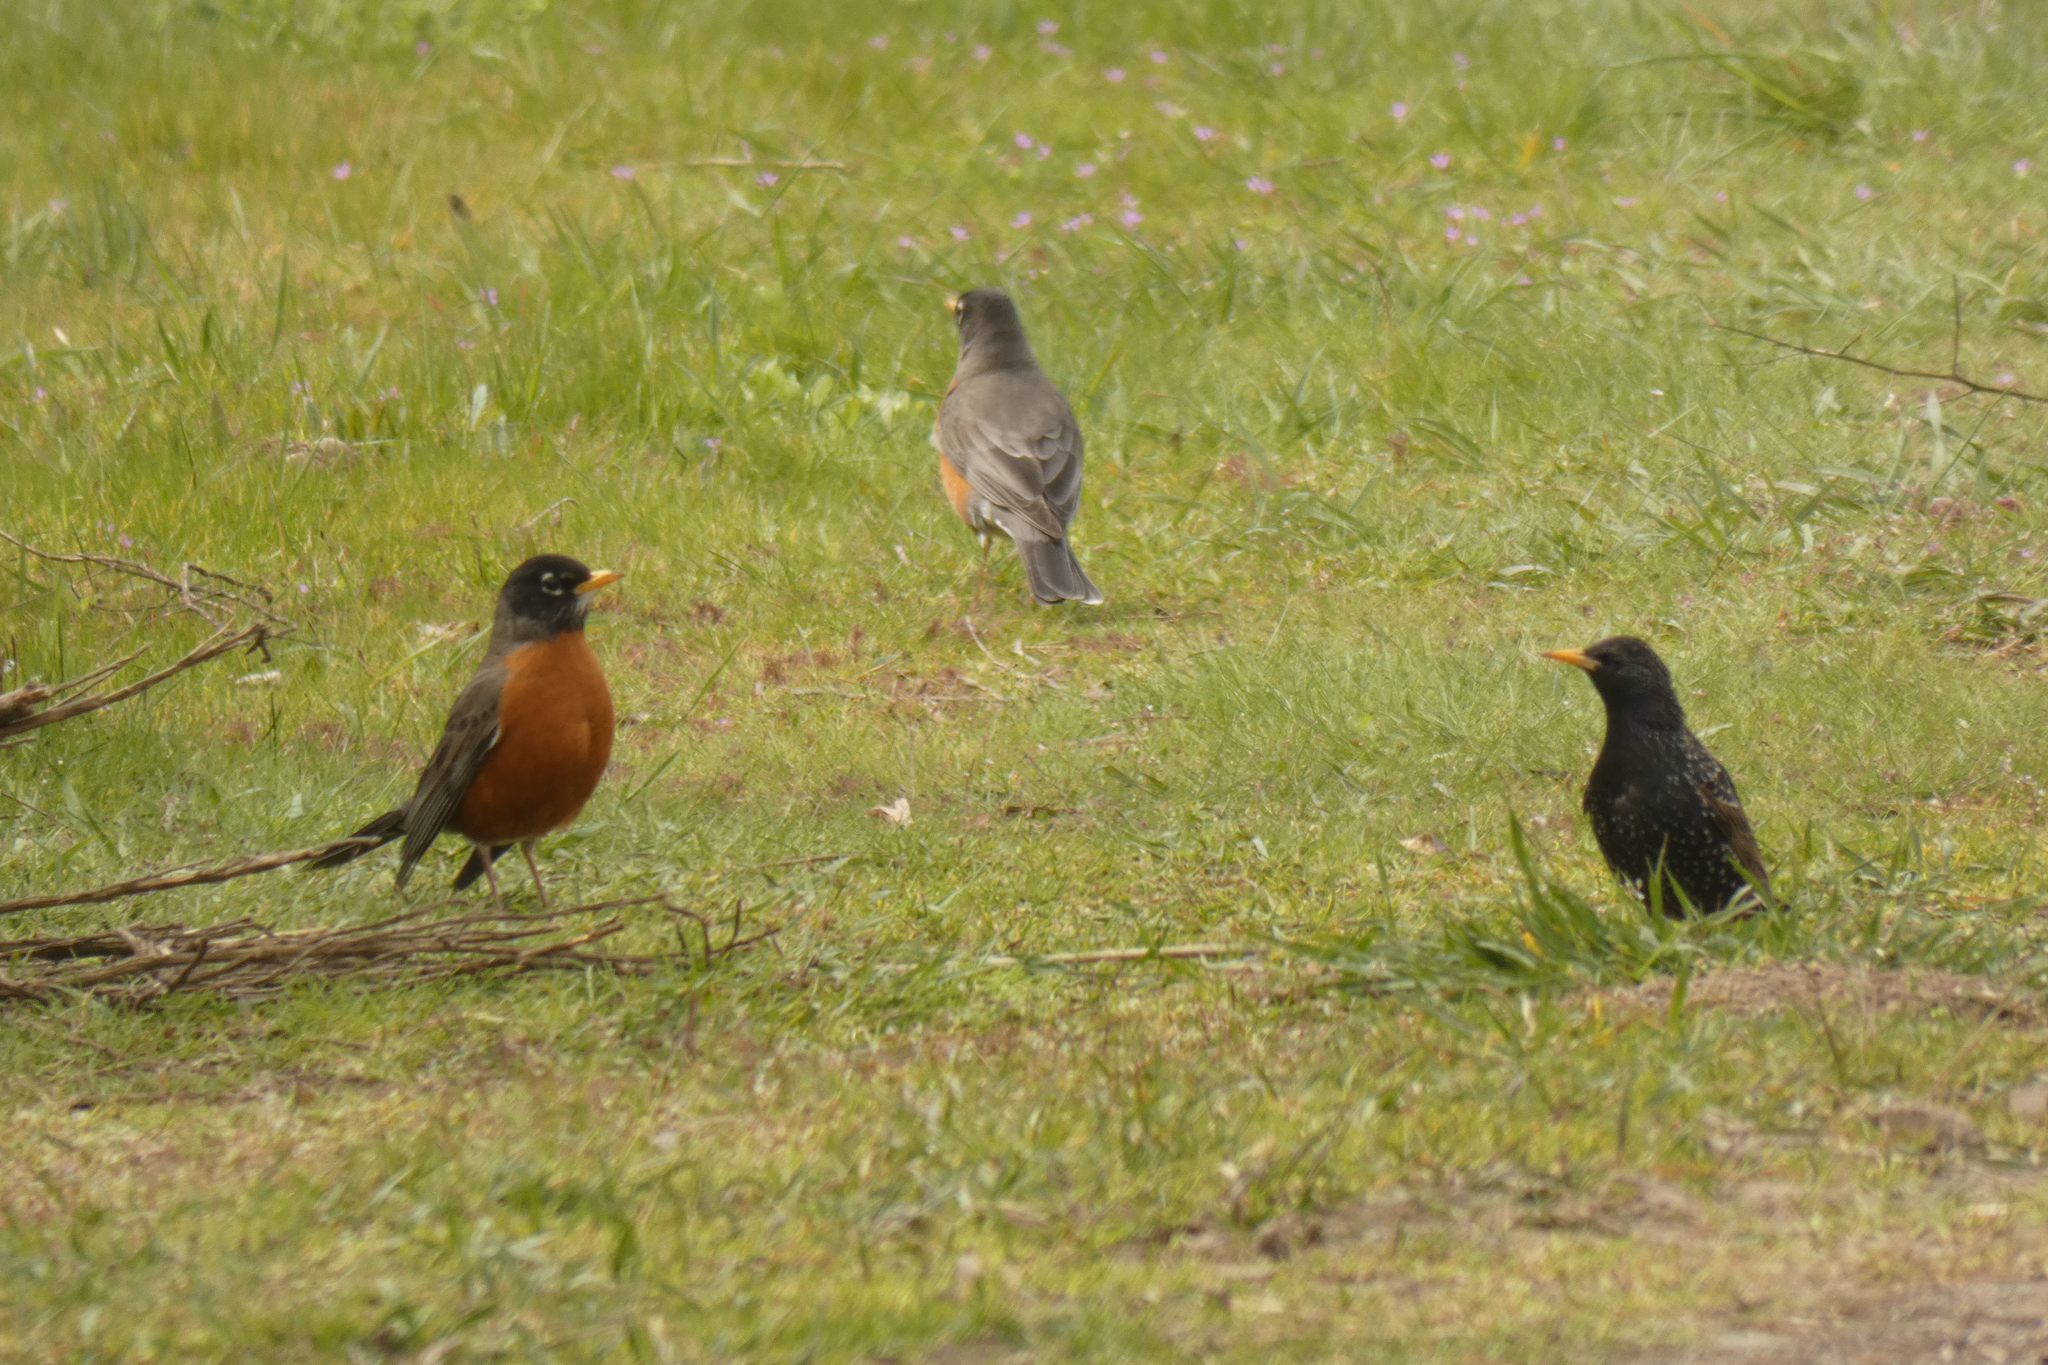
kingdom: Animalia
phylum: Chordata
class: Aves
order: Passeriformes
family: Sturnidae
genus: Sturnus
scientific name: Sturnus vulgaris
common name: Common starling
